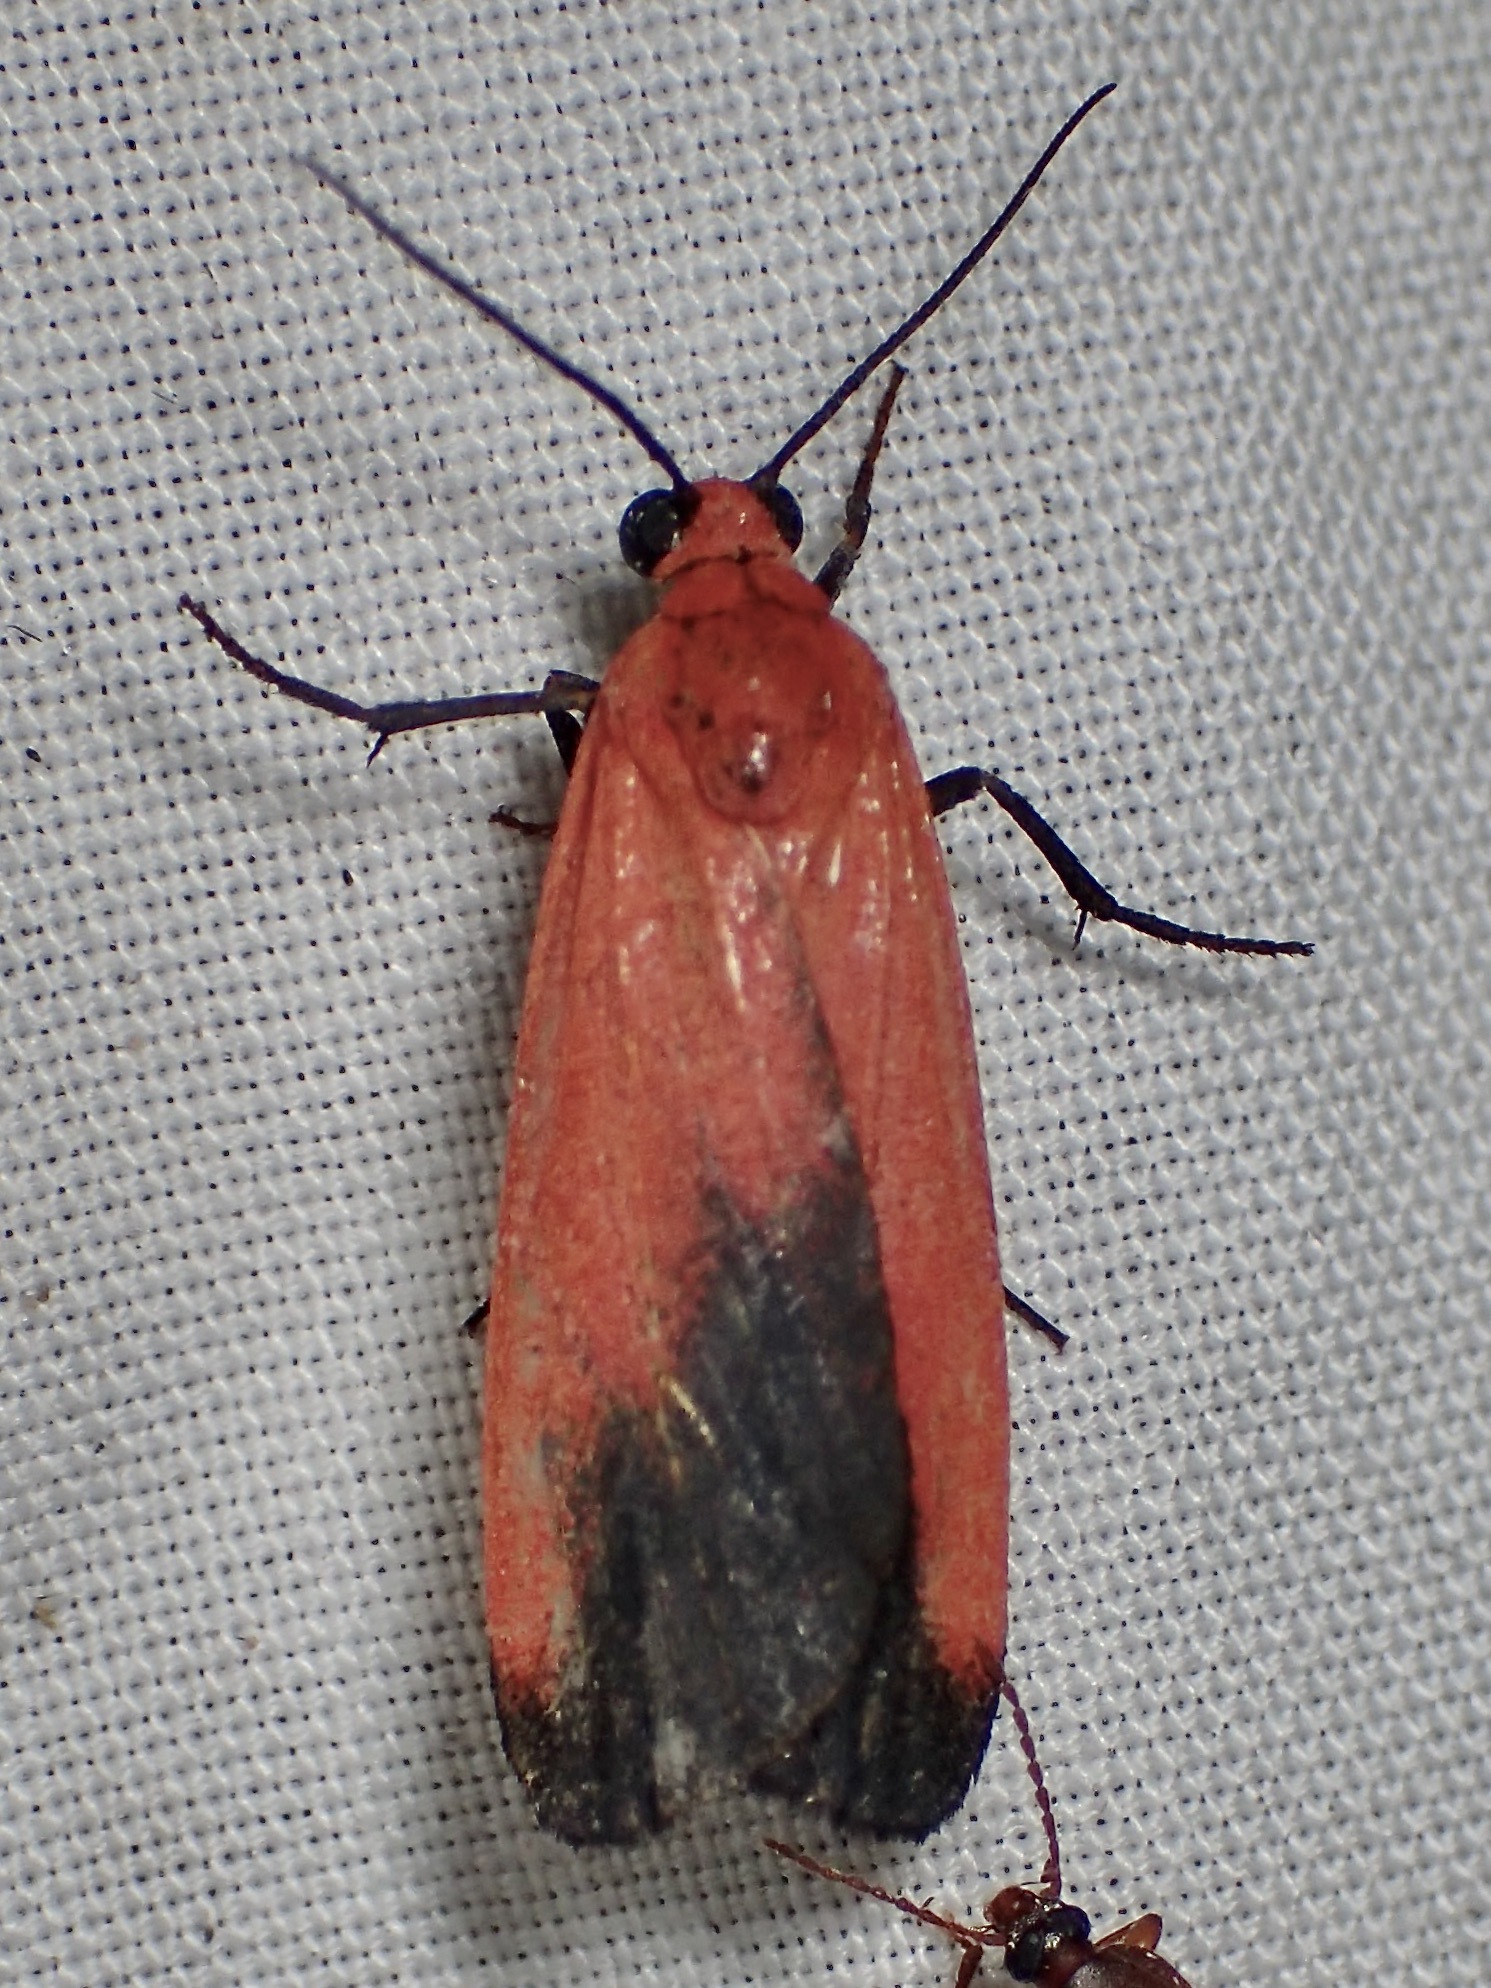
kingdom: Animalia
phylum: Arthropoda
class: Insecta
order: Lepidoptera
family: Erebidae
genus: Ptychoglene
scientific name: Ptychoglene coccinea
